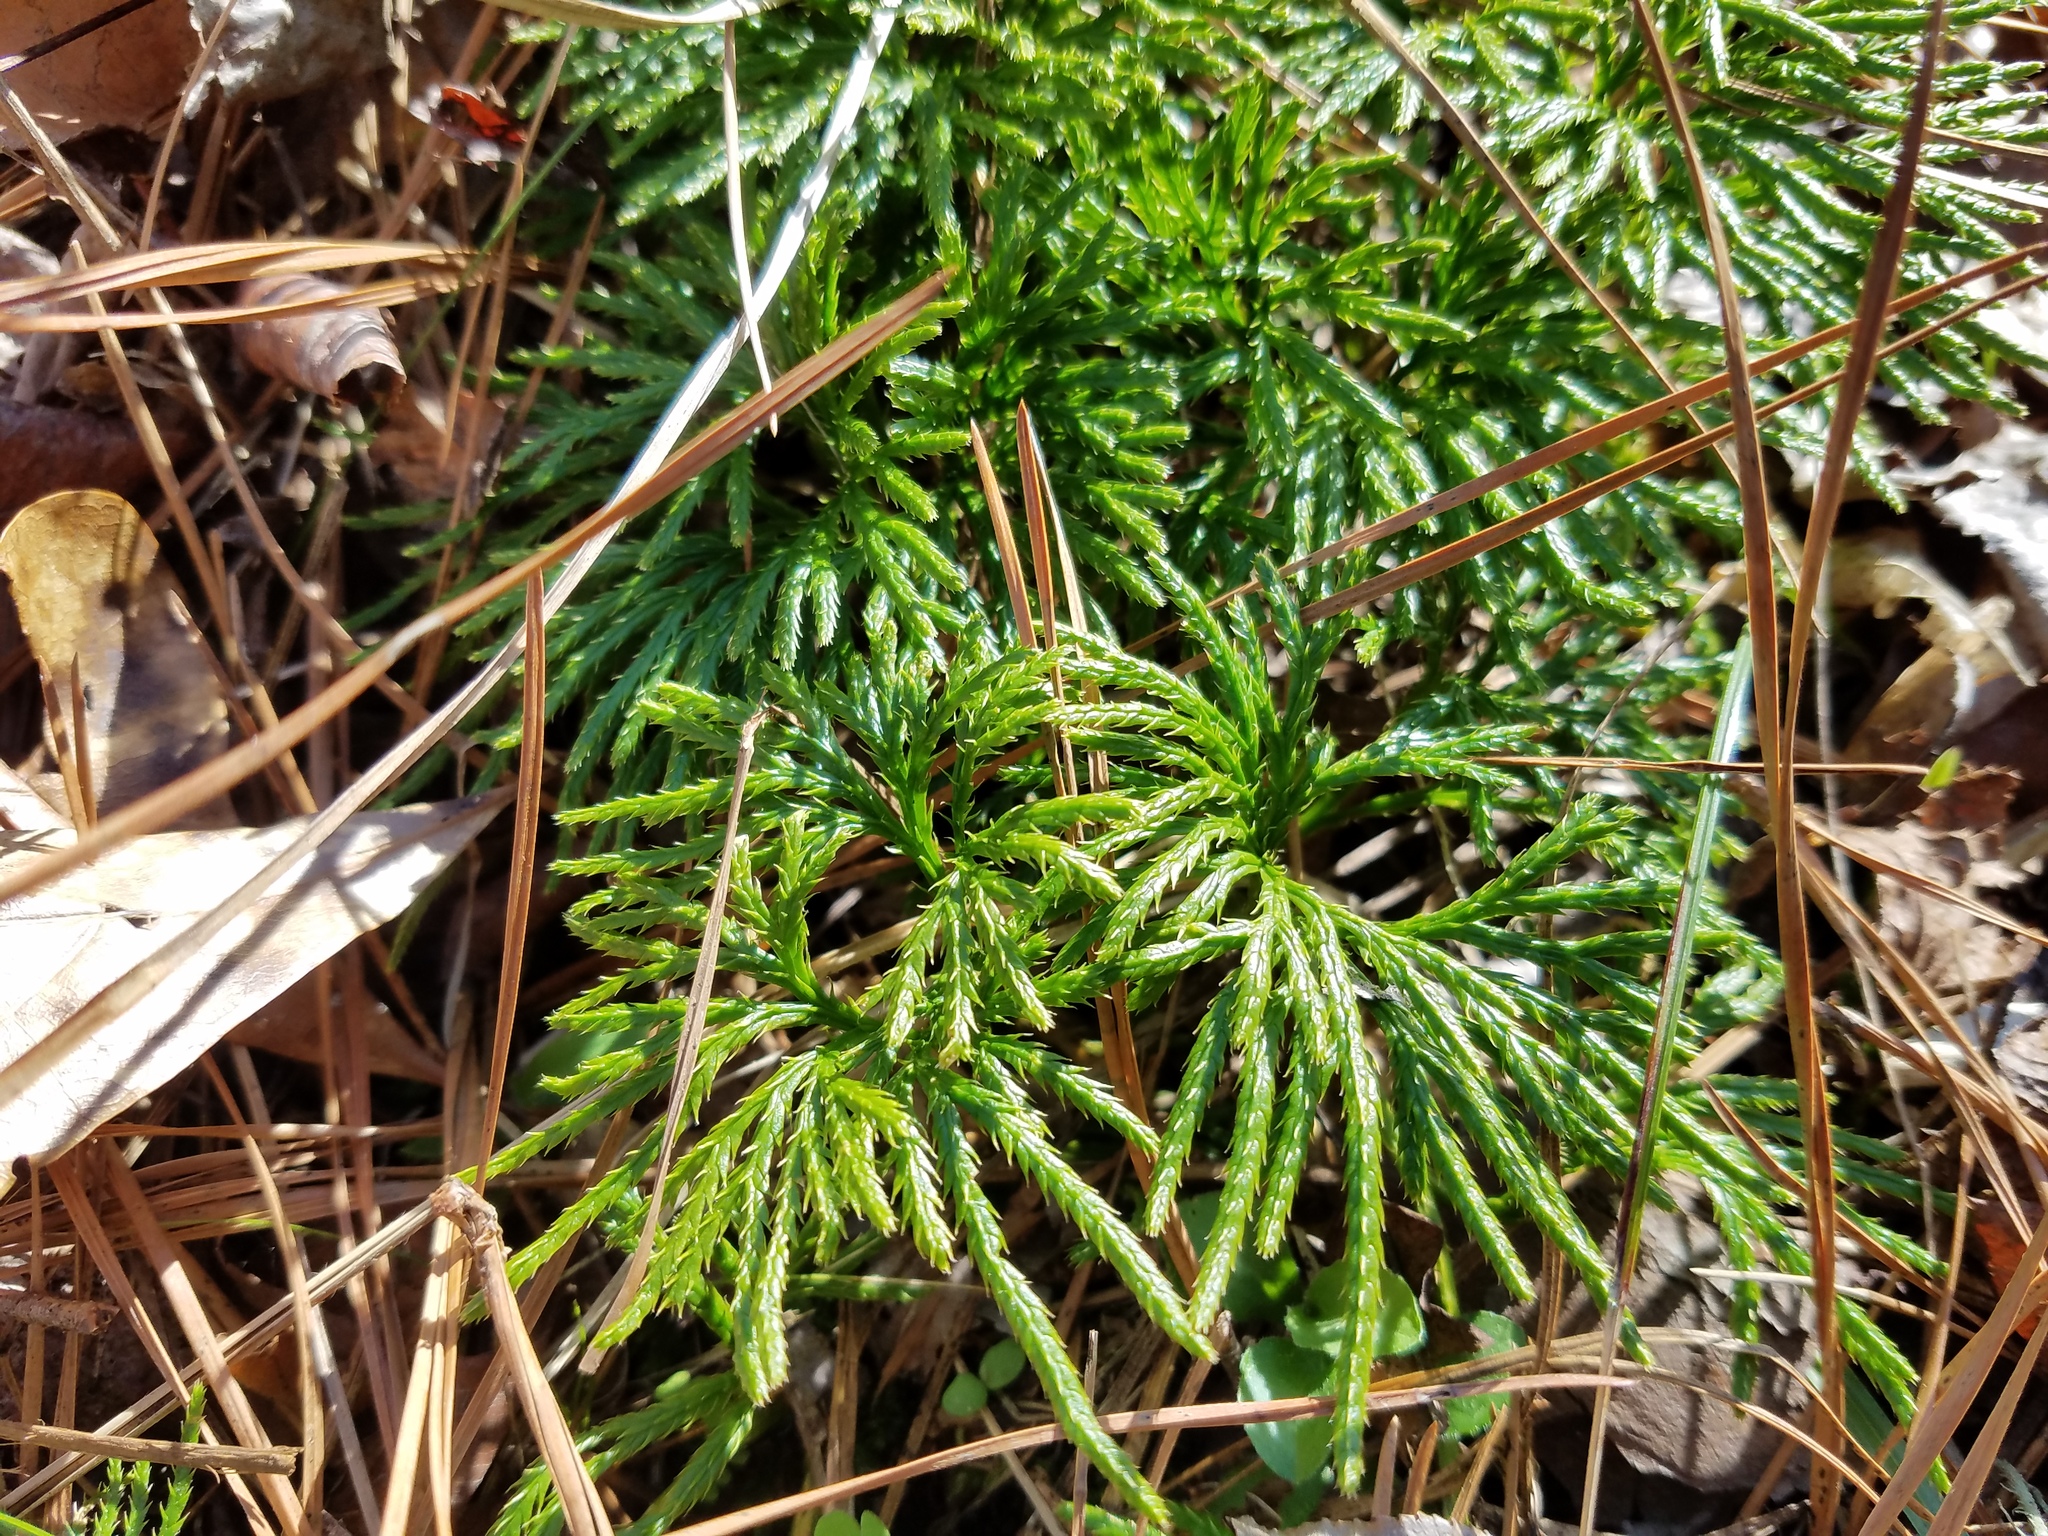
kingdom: Plantae
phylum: Tracheophyta
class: Lycopodiopsida
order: Lycopodiales
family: Lycopodiaceae
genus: Diphasiastrum
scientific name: Diphasiastrum digitatum
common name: Southern running-pine
